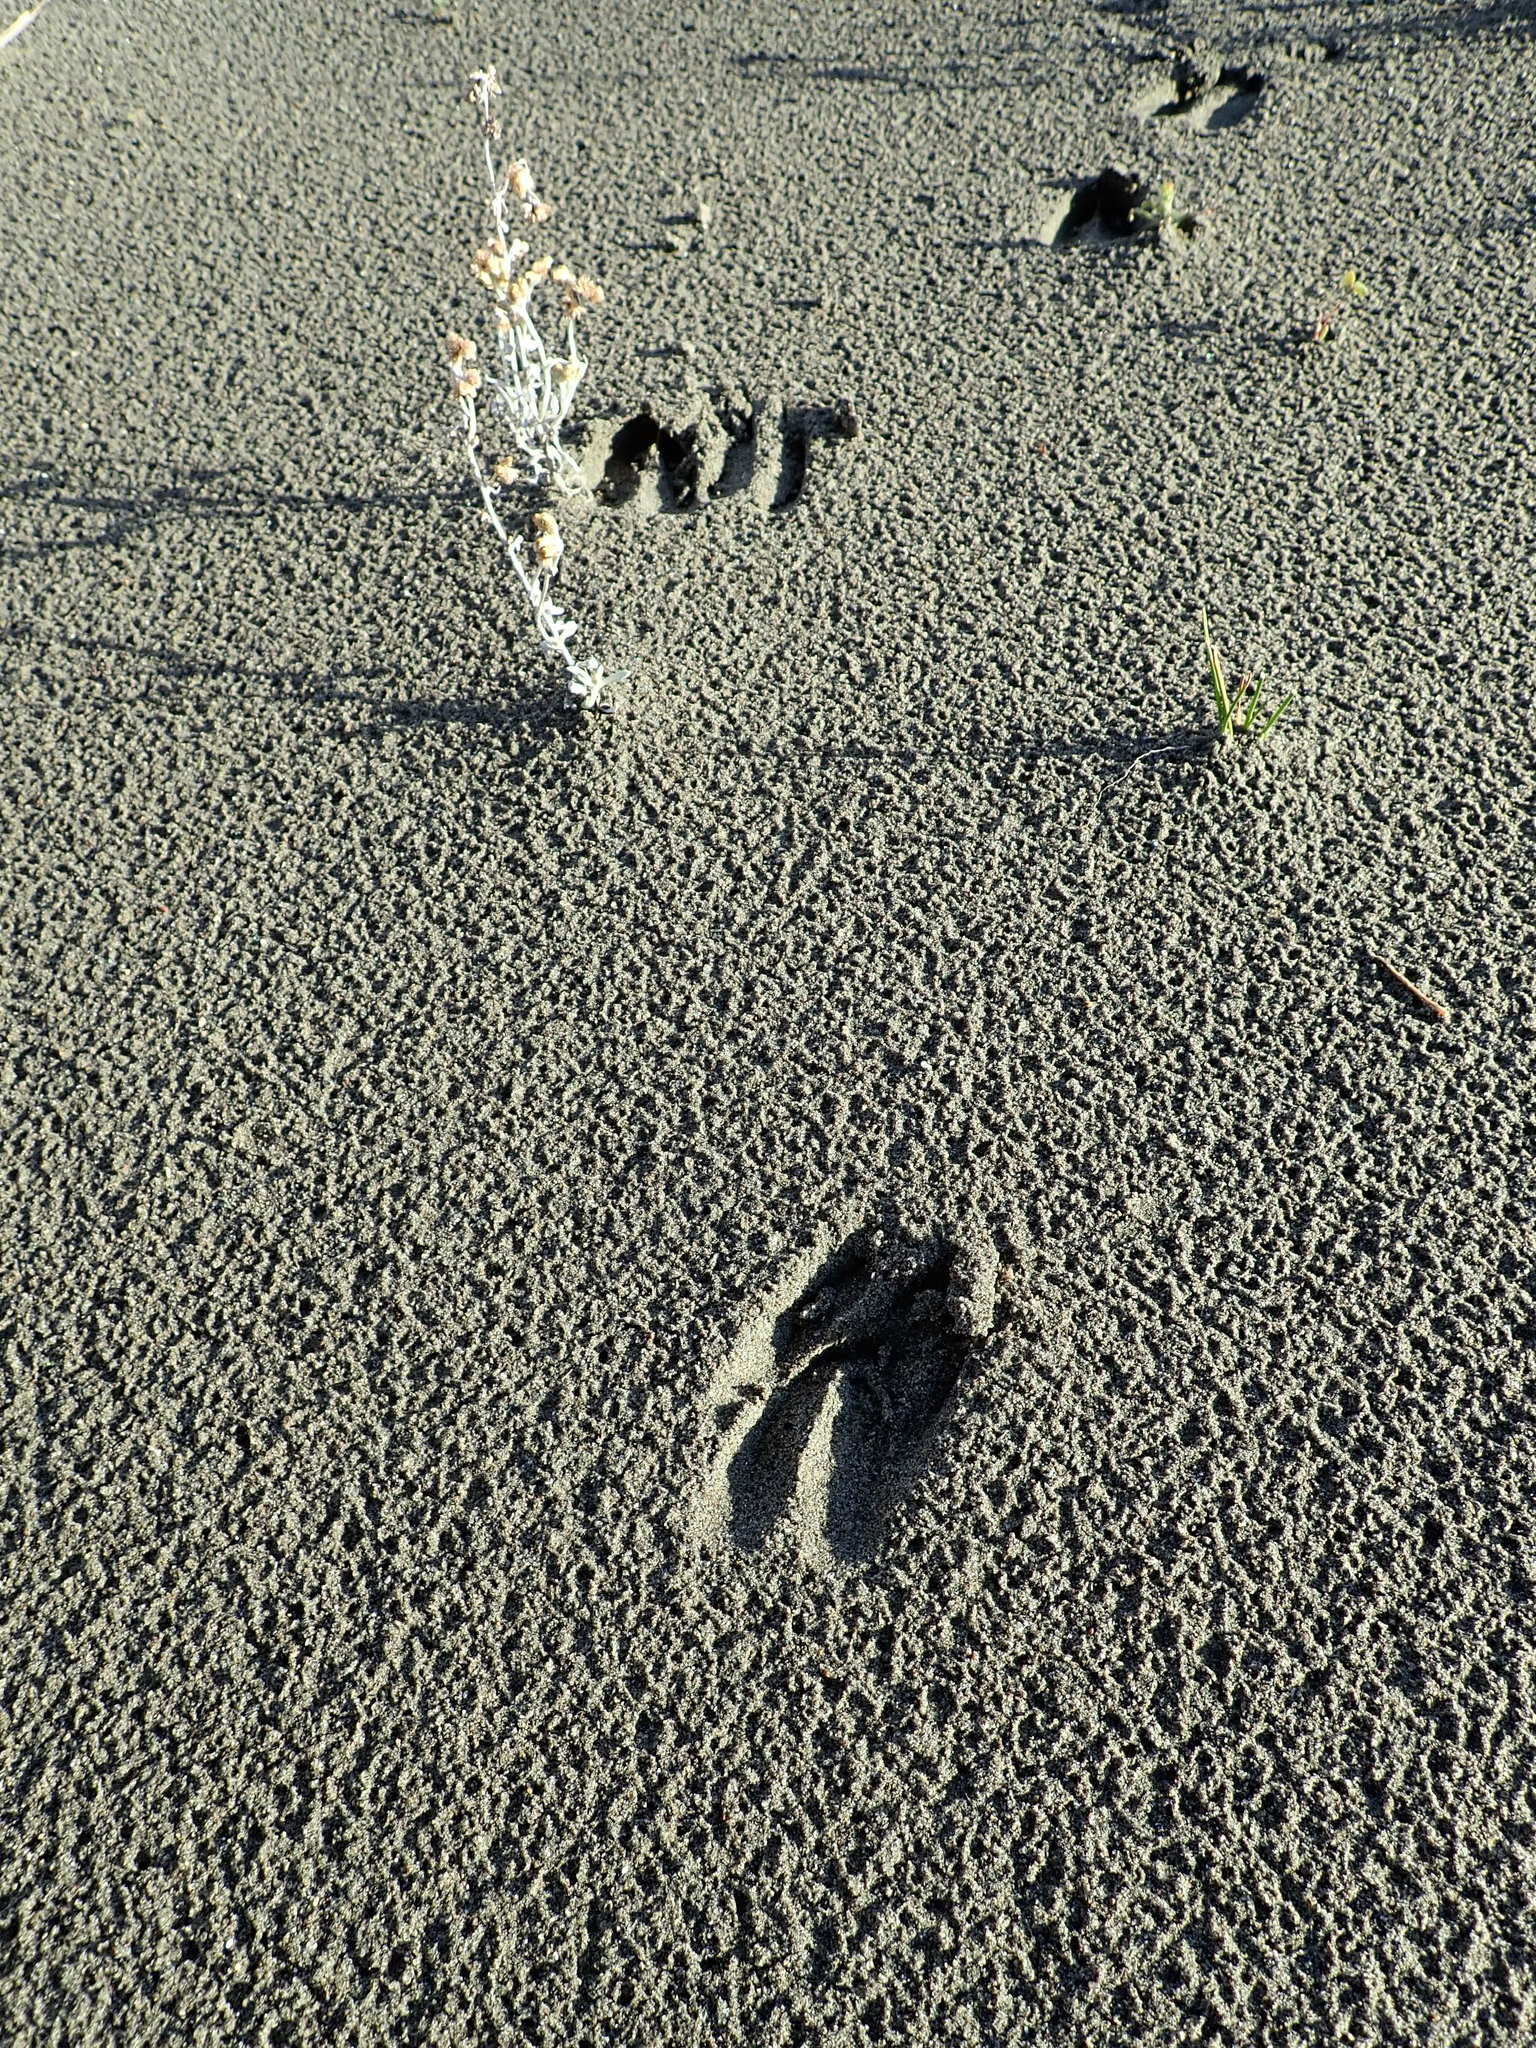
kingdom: Animalia
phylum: Chordata
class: Mammalia
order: Artiodactyla
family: Cervidae
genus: Rusa
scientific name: Rusa unicolor
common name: Sambar
